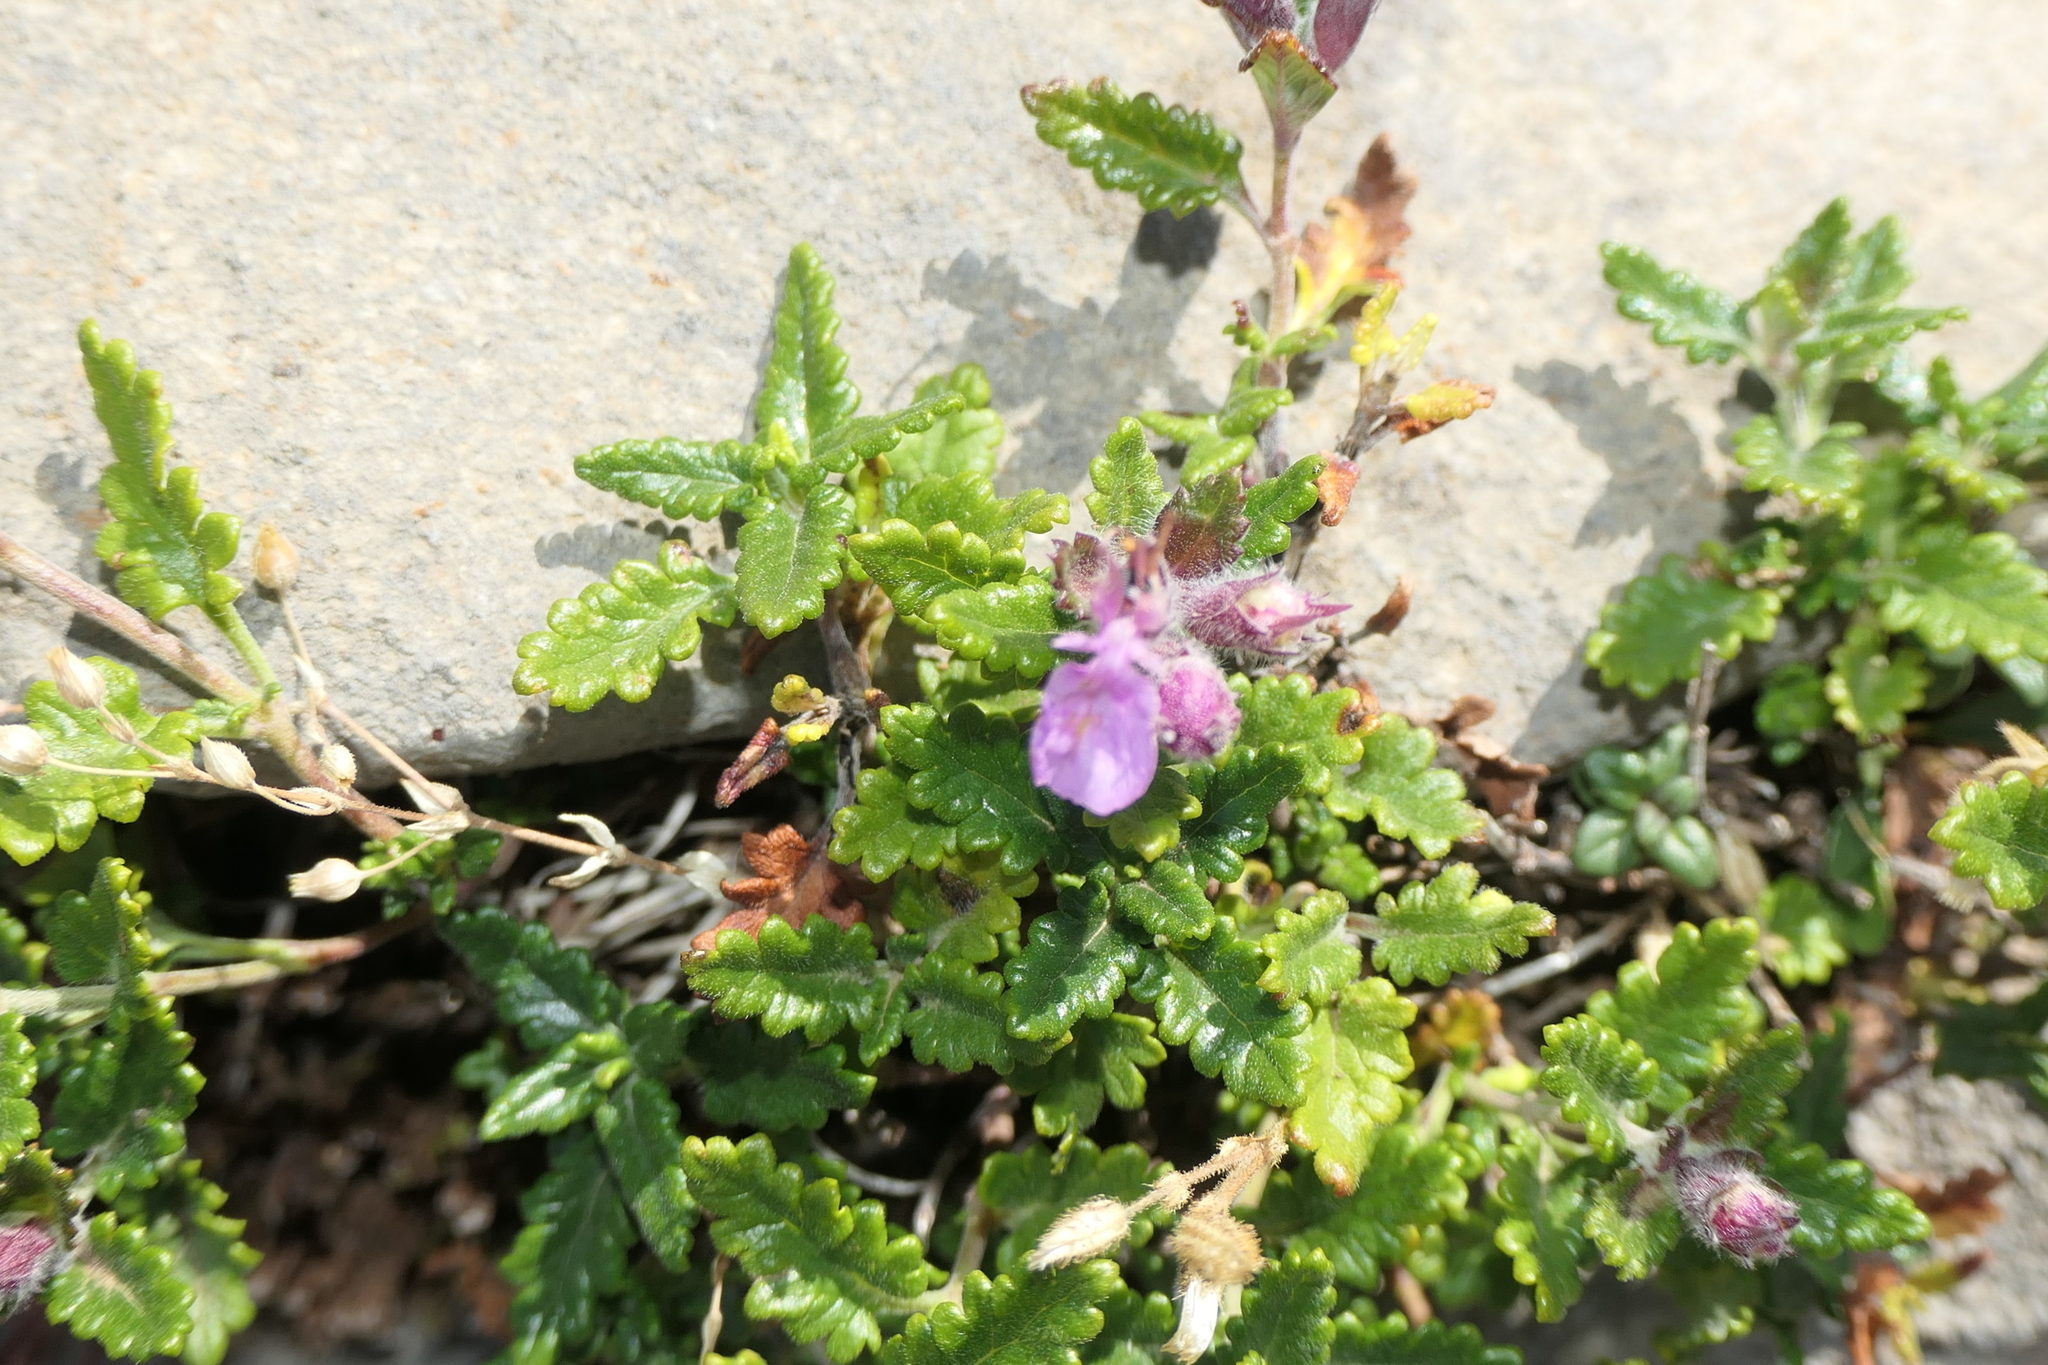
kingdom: Plantae
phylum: Tracheophyta
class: Magnoliopsida
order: Lamiales
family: Lamiaceae
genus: Teucrium
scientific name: Teucrium chamaedrys
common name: Wall germander
